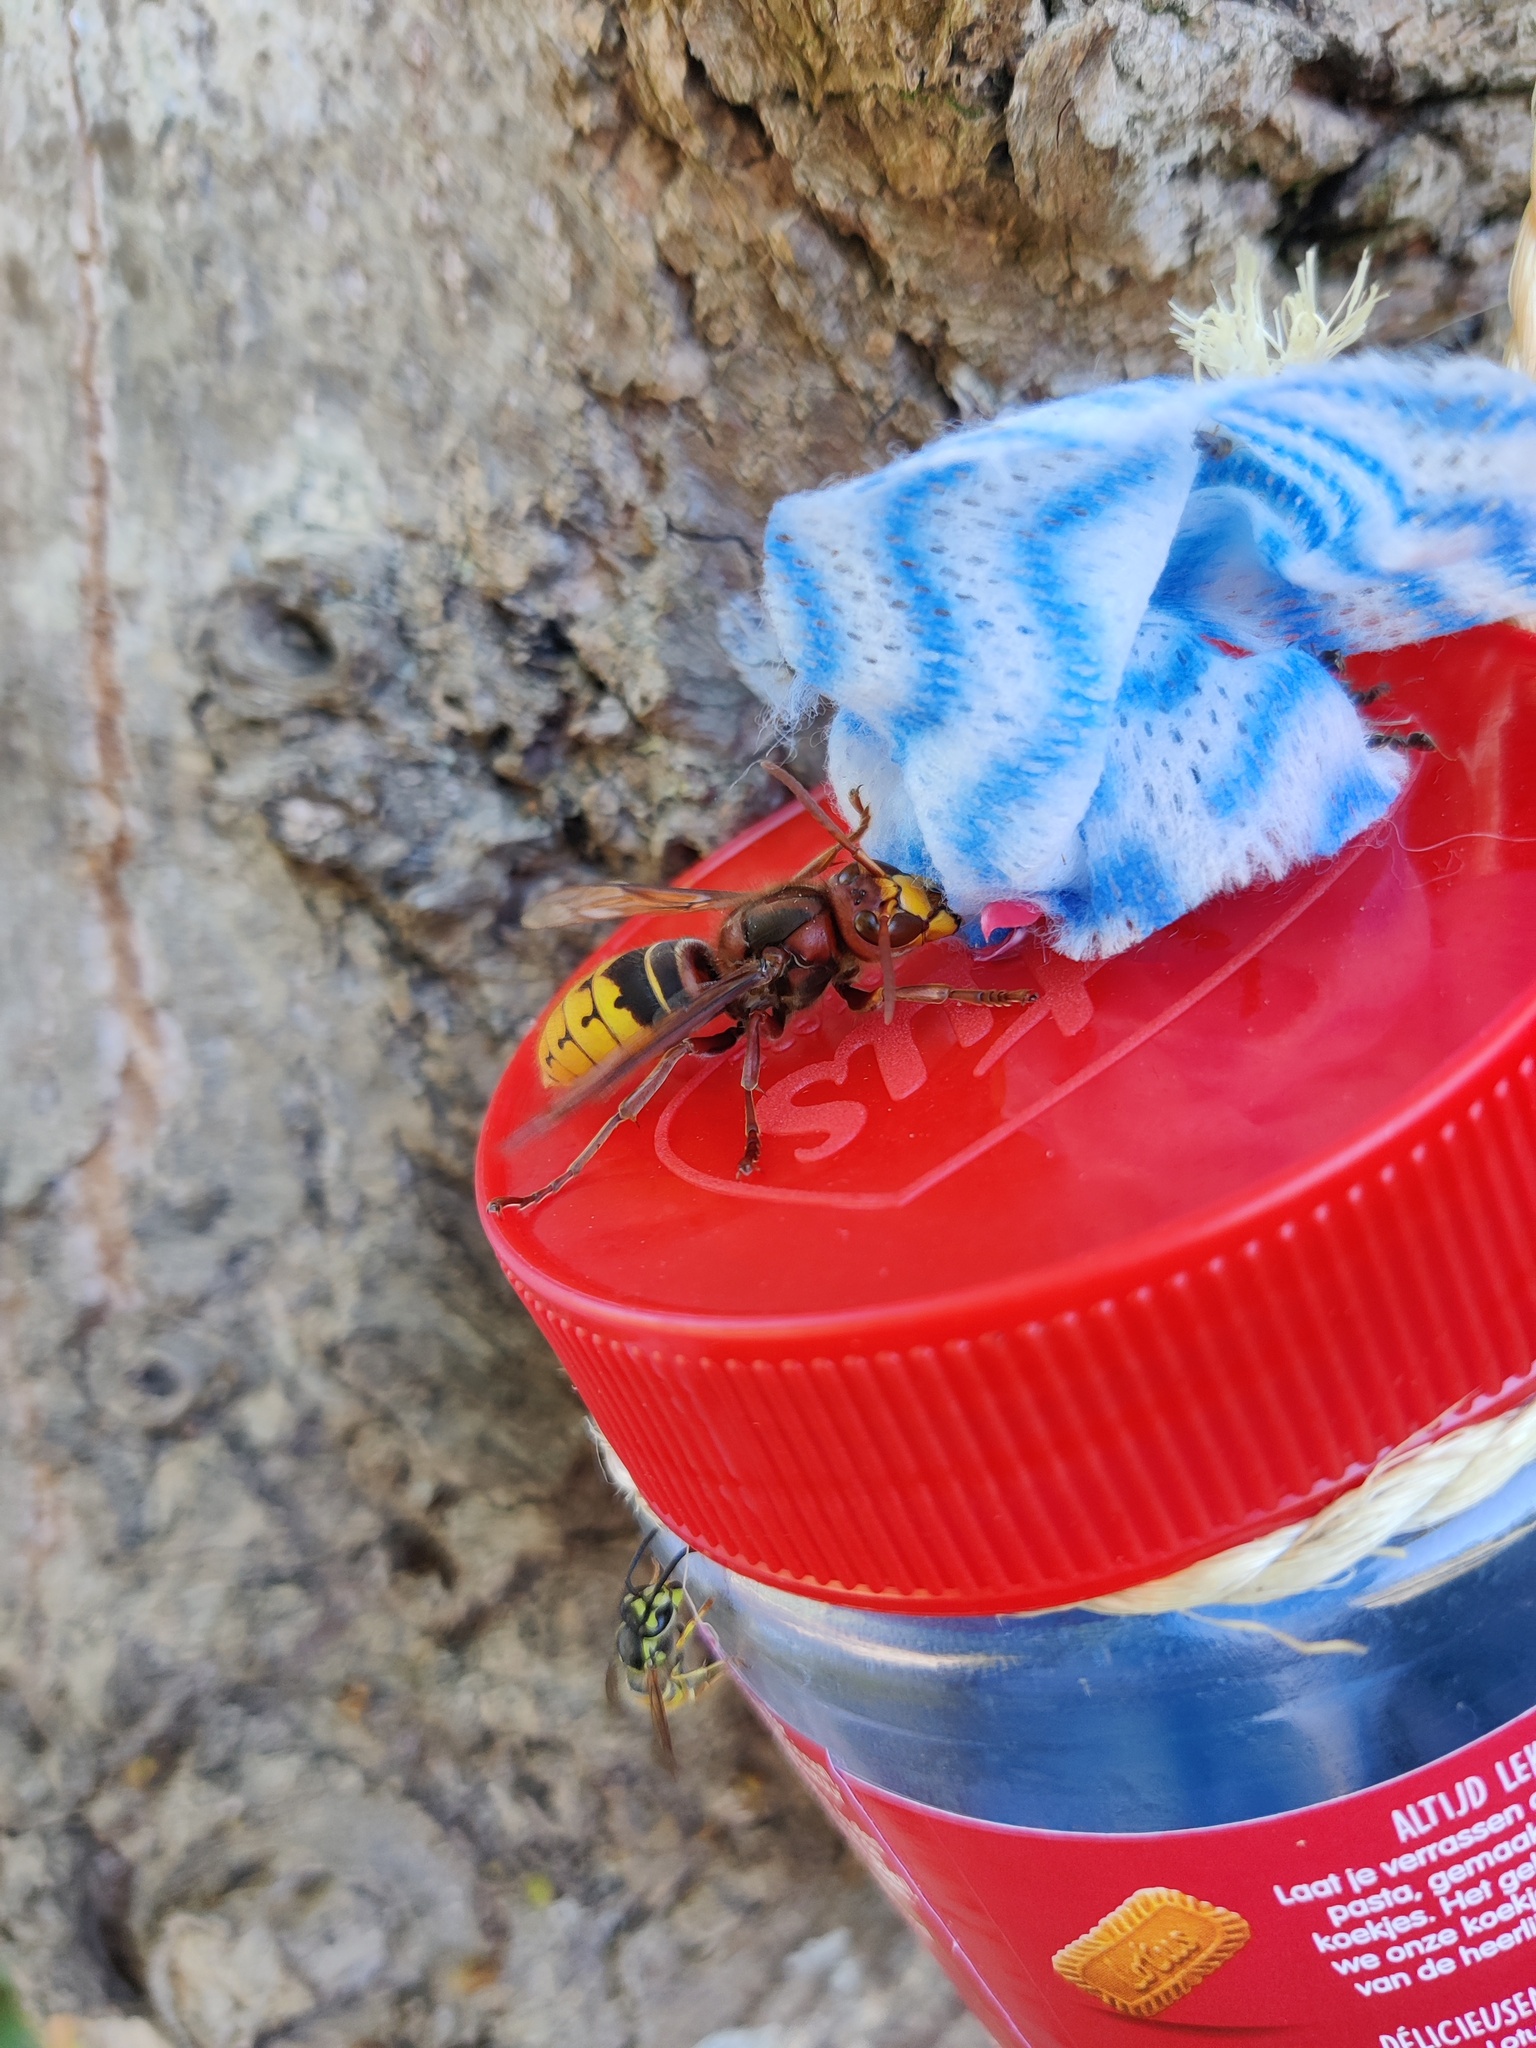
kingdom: Animalia
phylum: Arthropoda
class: Insecta
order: Hymenoptera
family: Vespidae
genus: Vespa
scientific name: Vespa crabro
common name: Hornet
